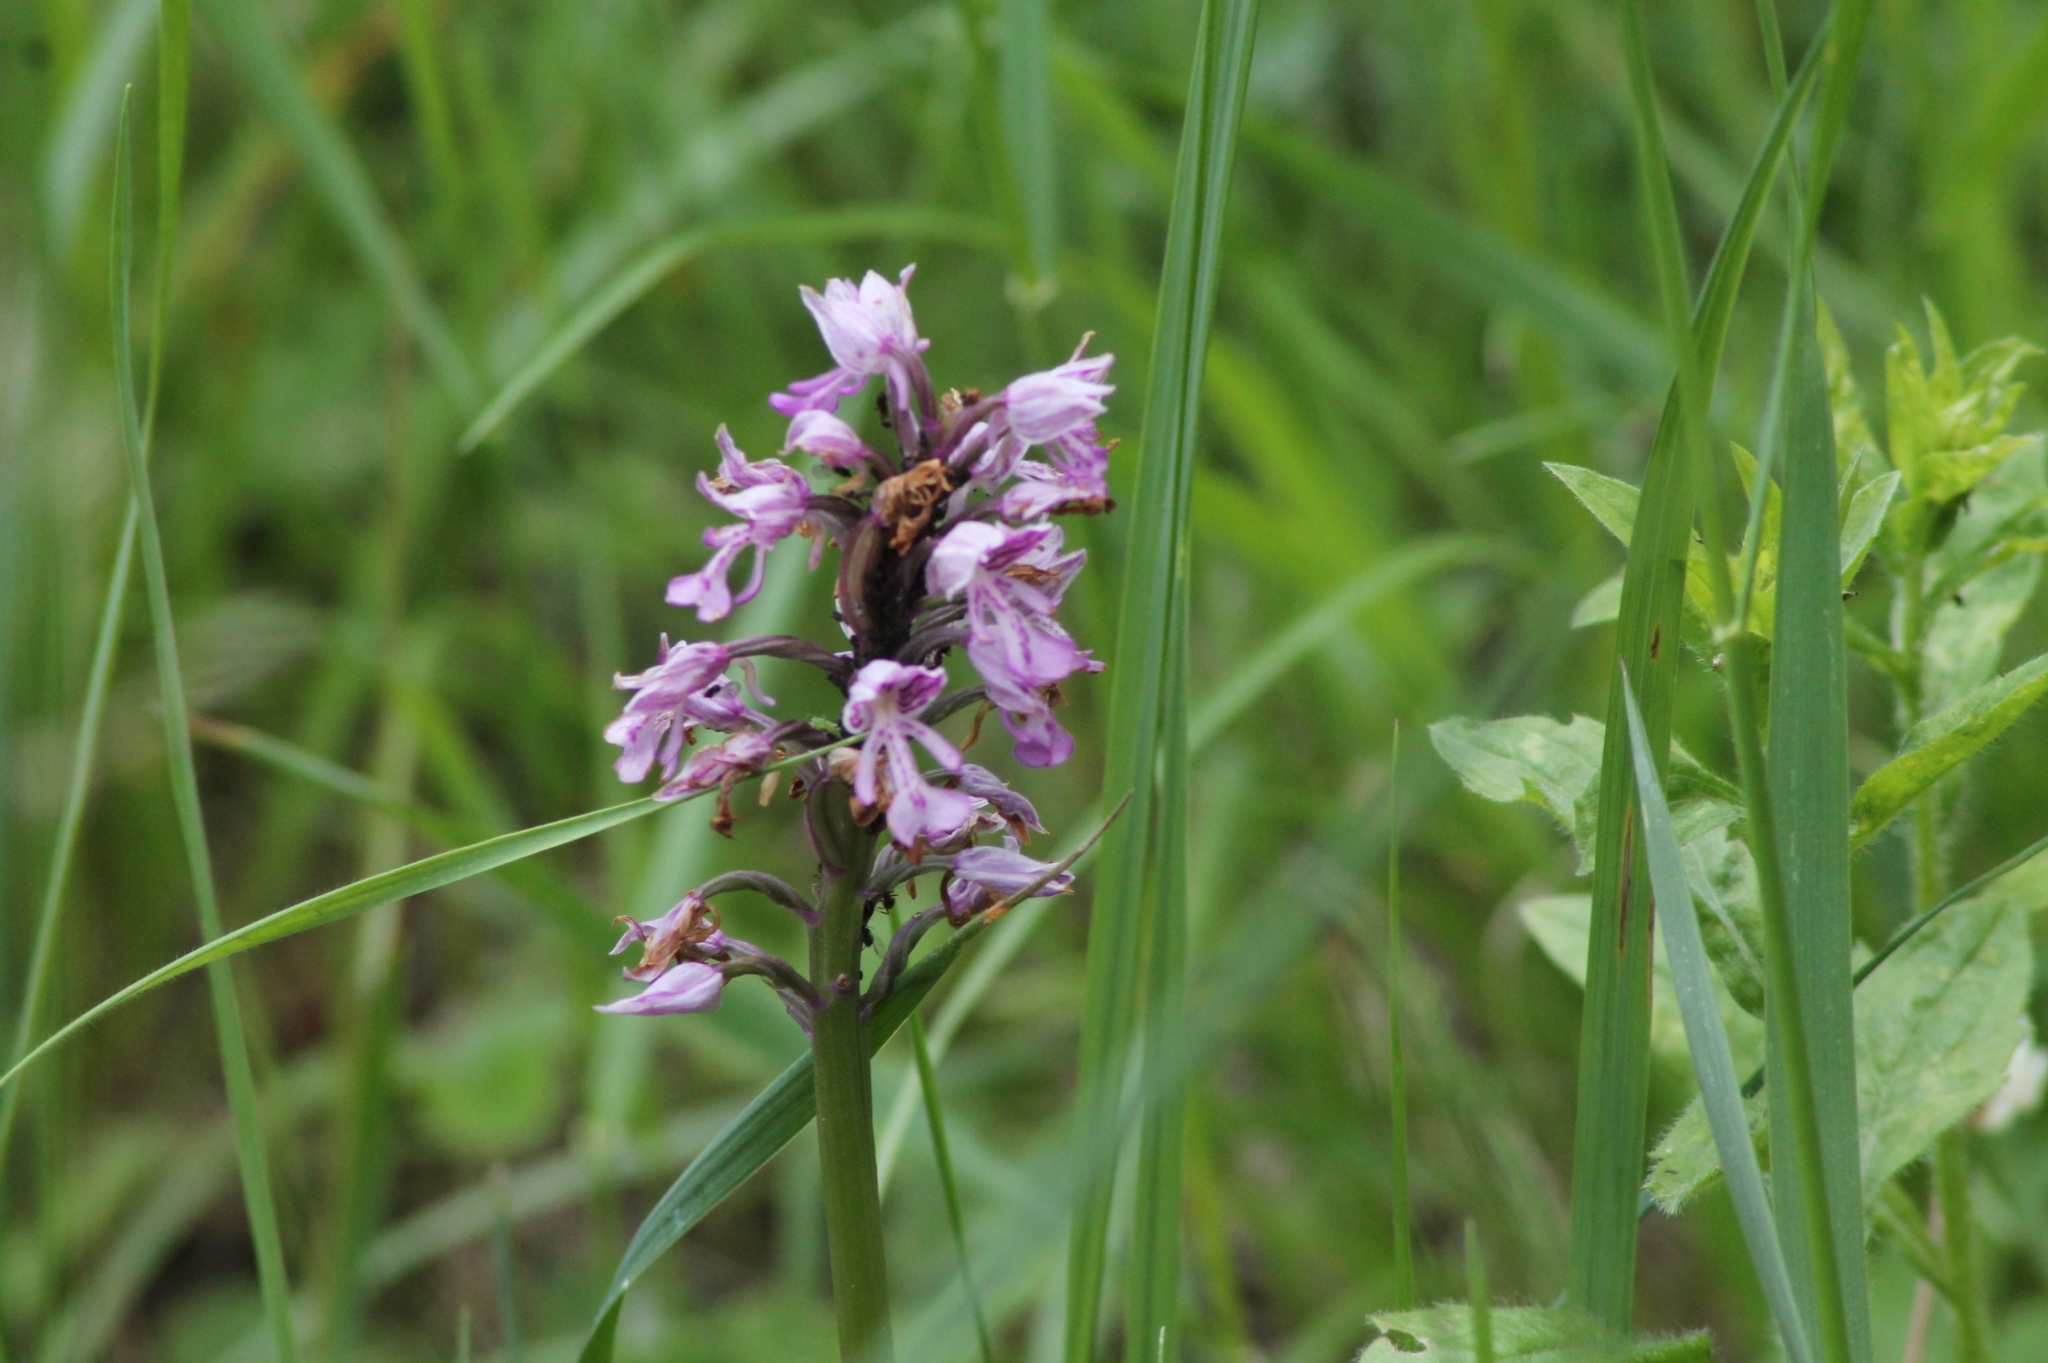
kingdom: Plantae
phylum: Tracheophyta
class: Liliopsida
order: Asparagales
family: Orchidaceae
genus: Orchis
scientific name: Orchis militaris
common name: Military orchid
